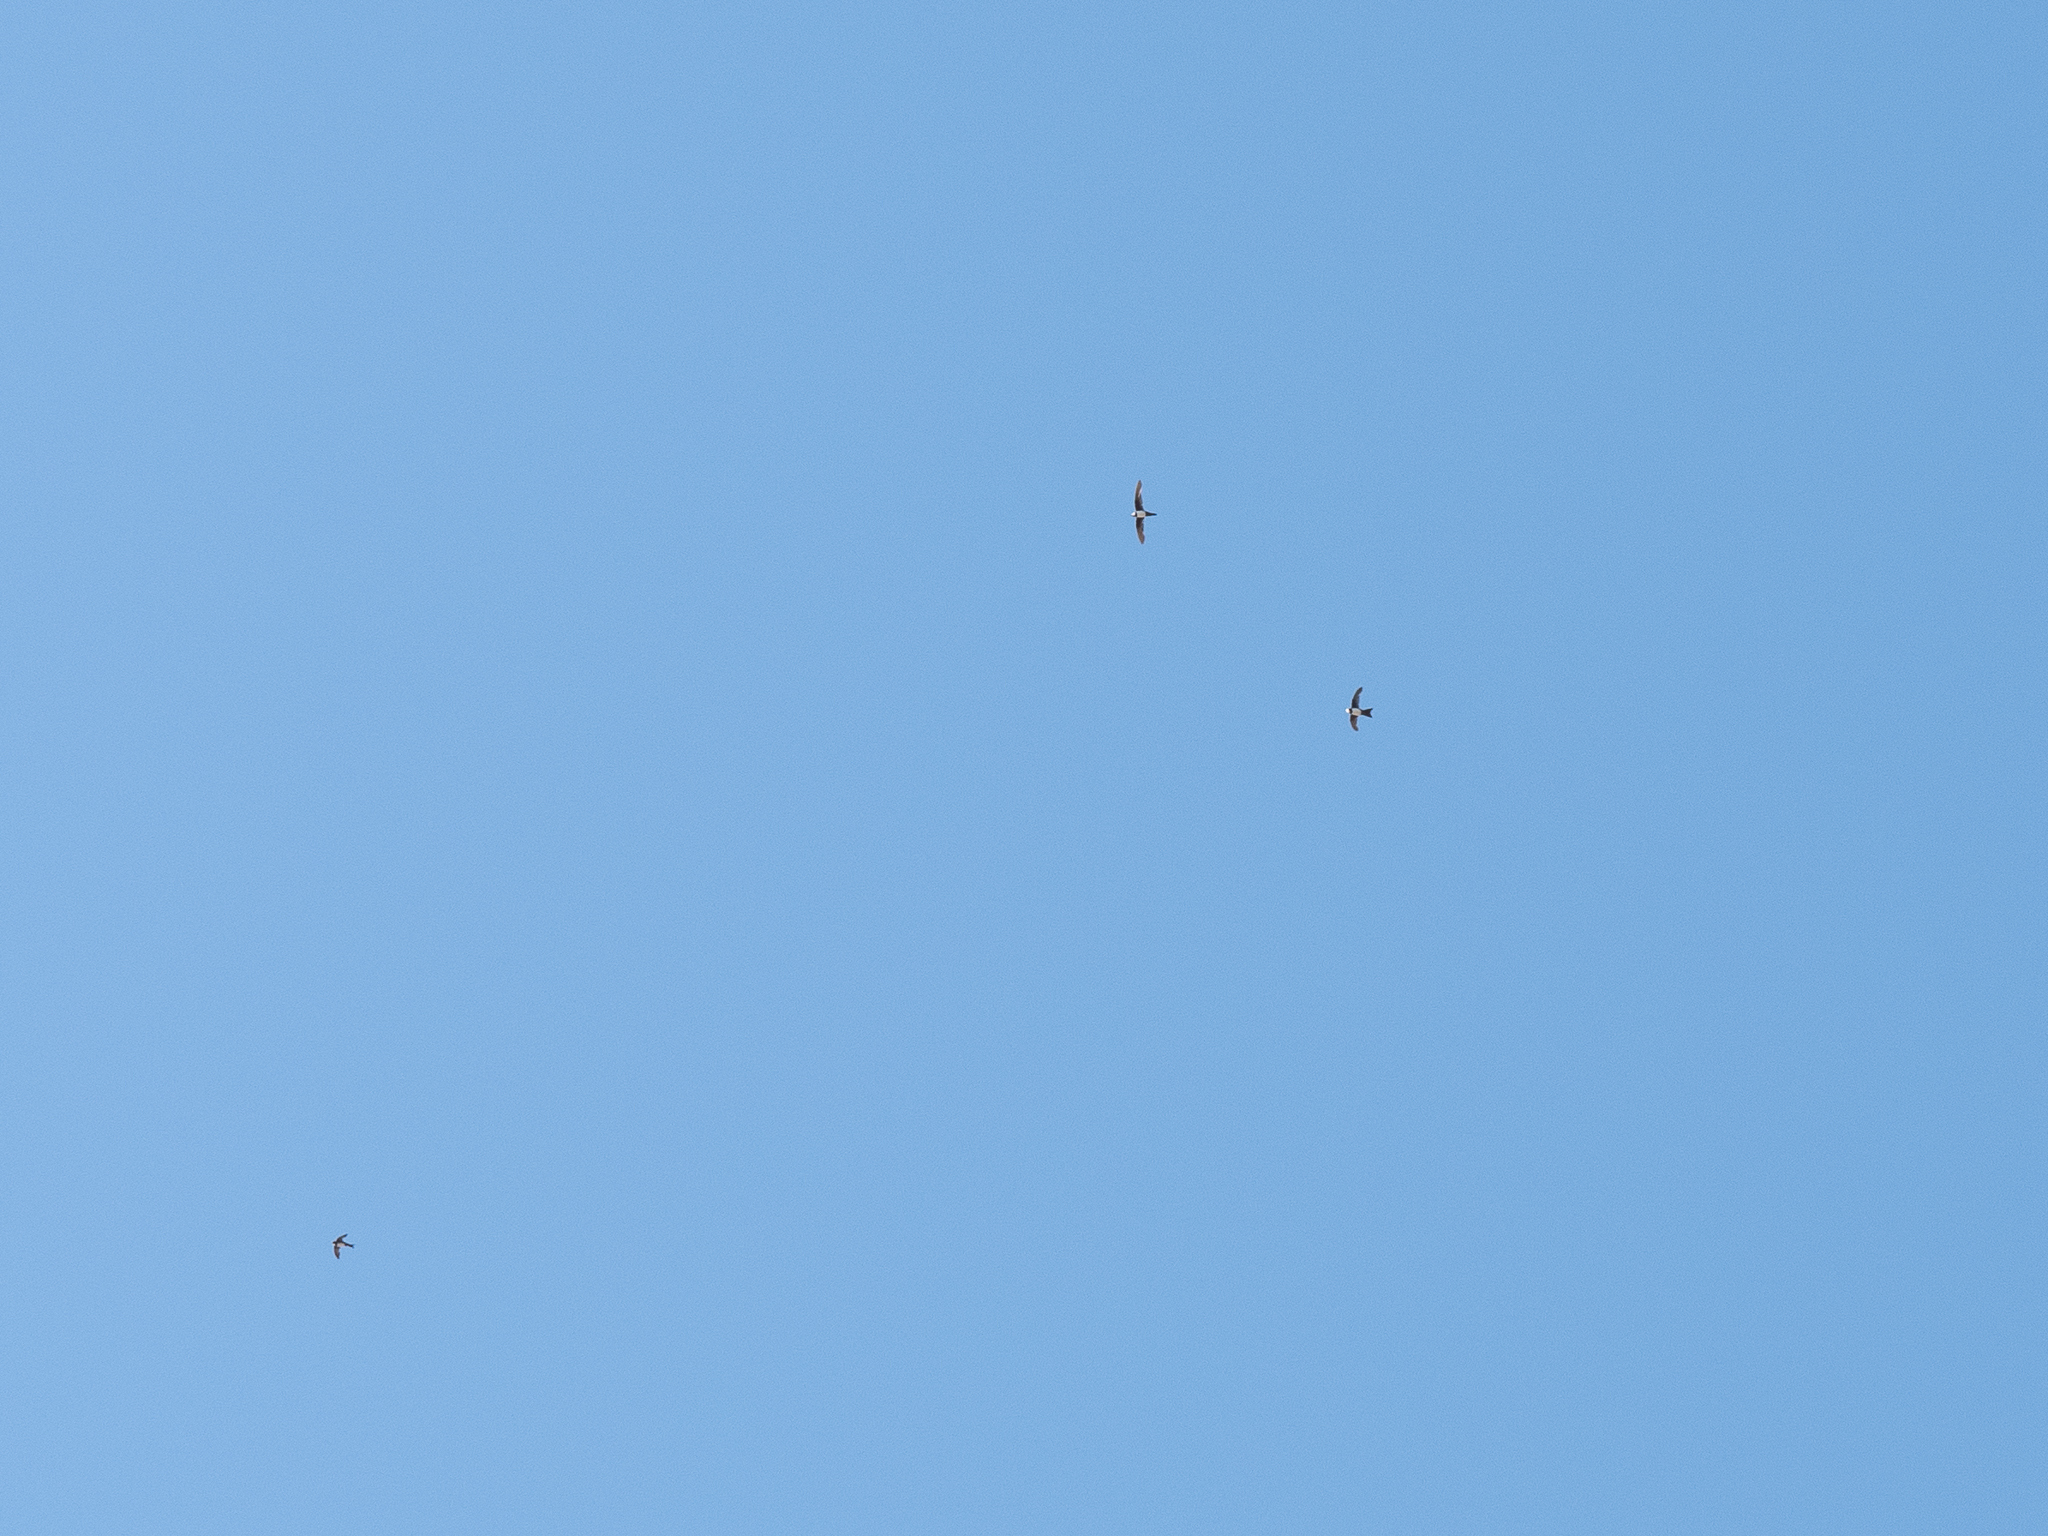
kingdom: Animalia
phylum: Chordata
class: Aves
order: Apodiformes
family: Apodidae
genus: Tachymarptis
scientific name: Tachymarptis melba
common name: Alpine swift
